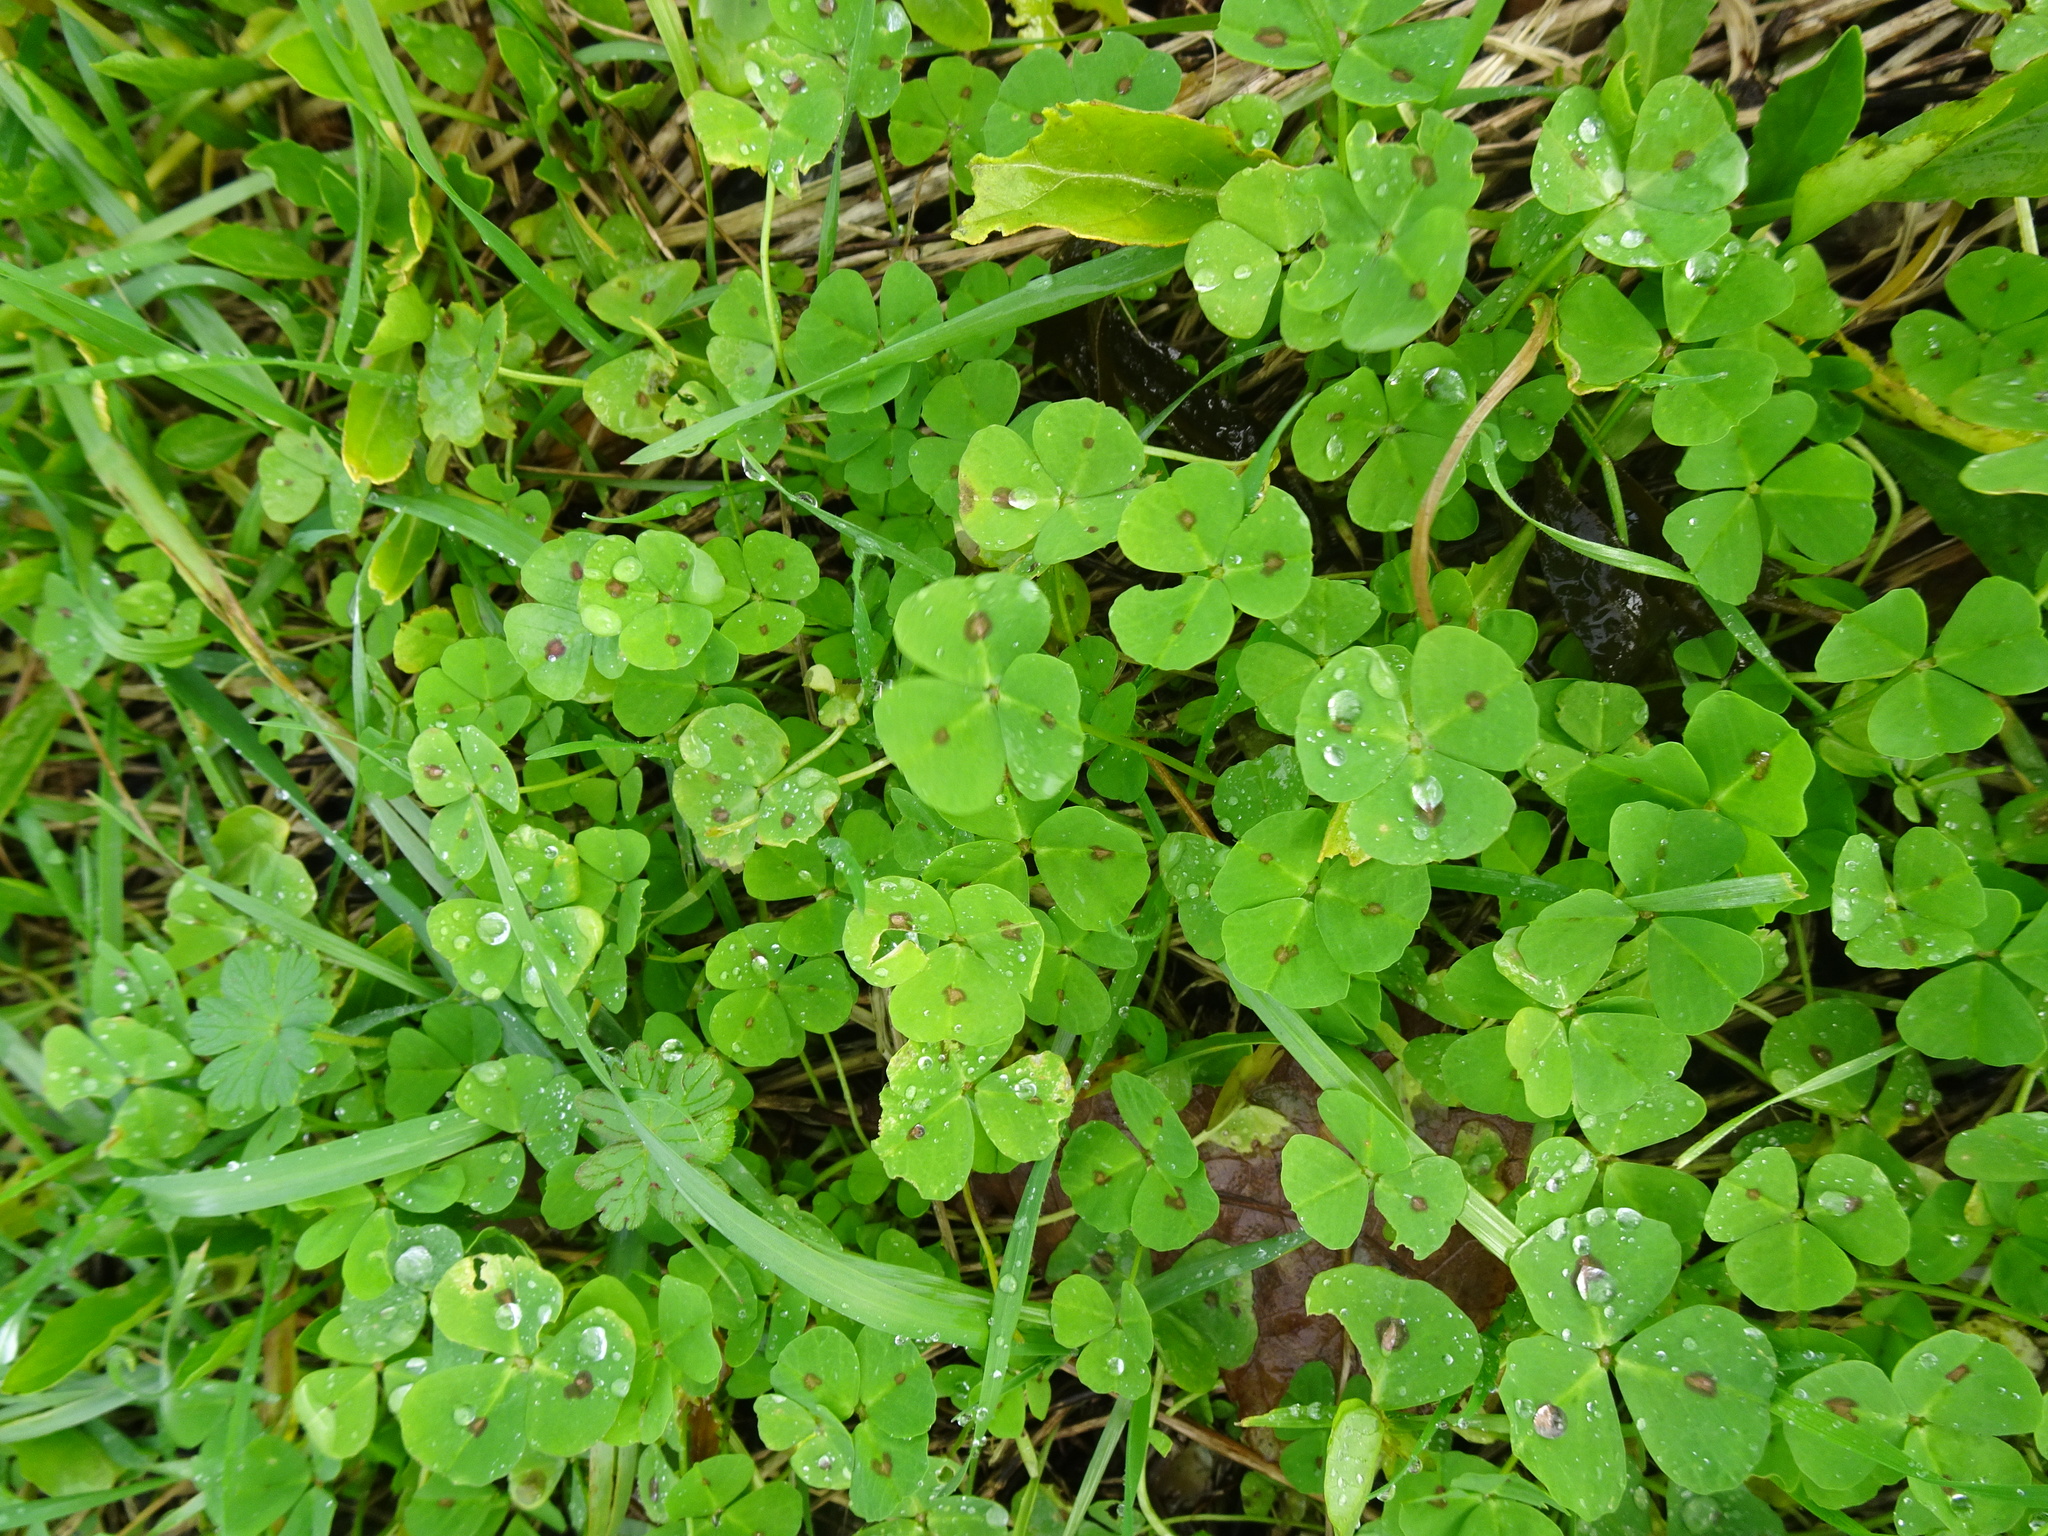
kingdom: Plantae
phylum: Tracheophyta
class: Magnoliopsida
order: Fabales
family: Fabaceae
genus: Medicago
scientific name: Medicago arabica
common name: Spotted medick
